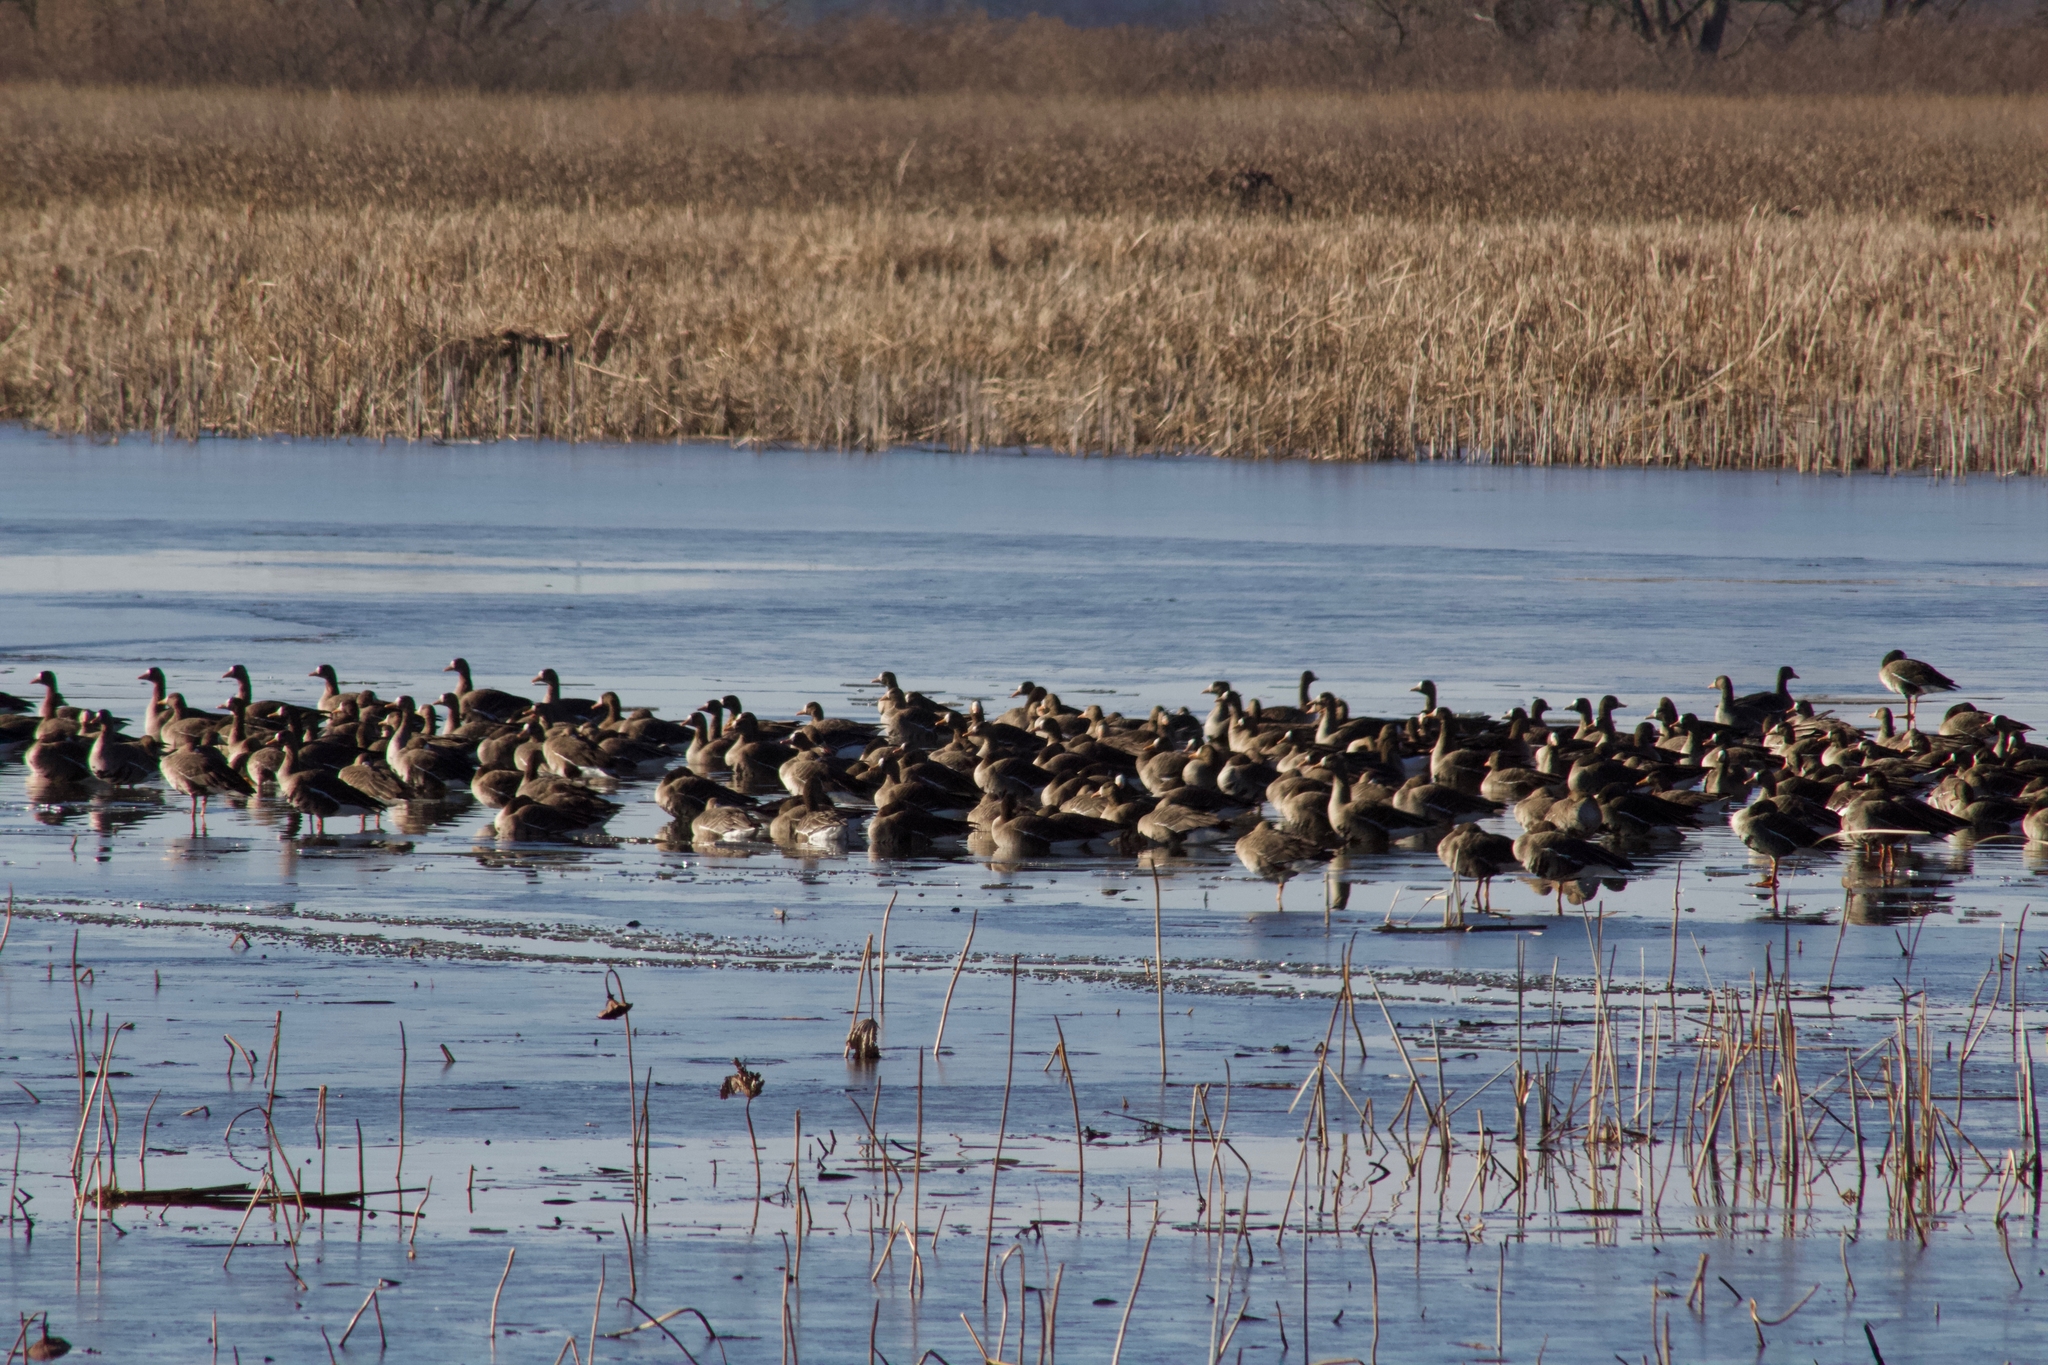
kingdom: Animalia
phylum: Chordata
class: Aves
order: Anseriformes
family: Anatidae
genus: Anser
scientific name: Anser albifrons
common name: Greater white-fronted goose
